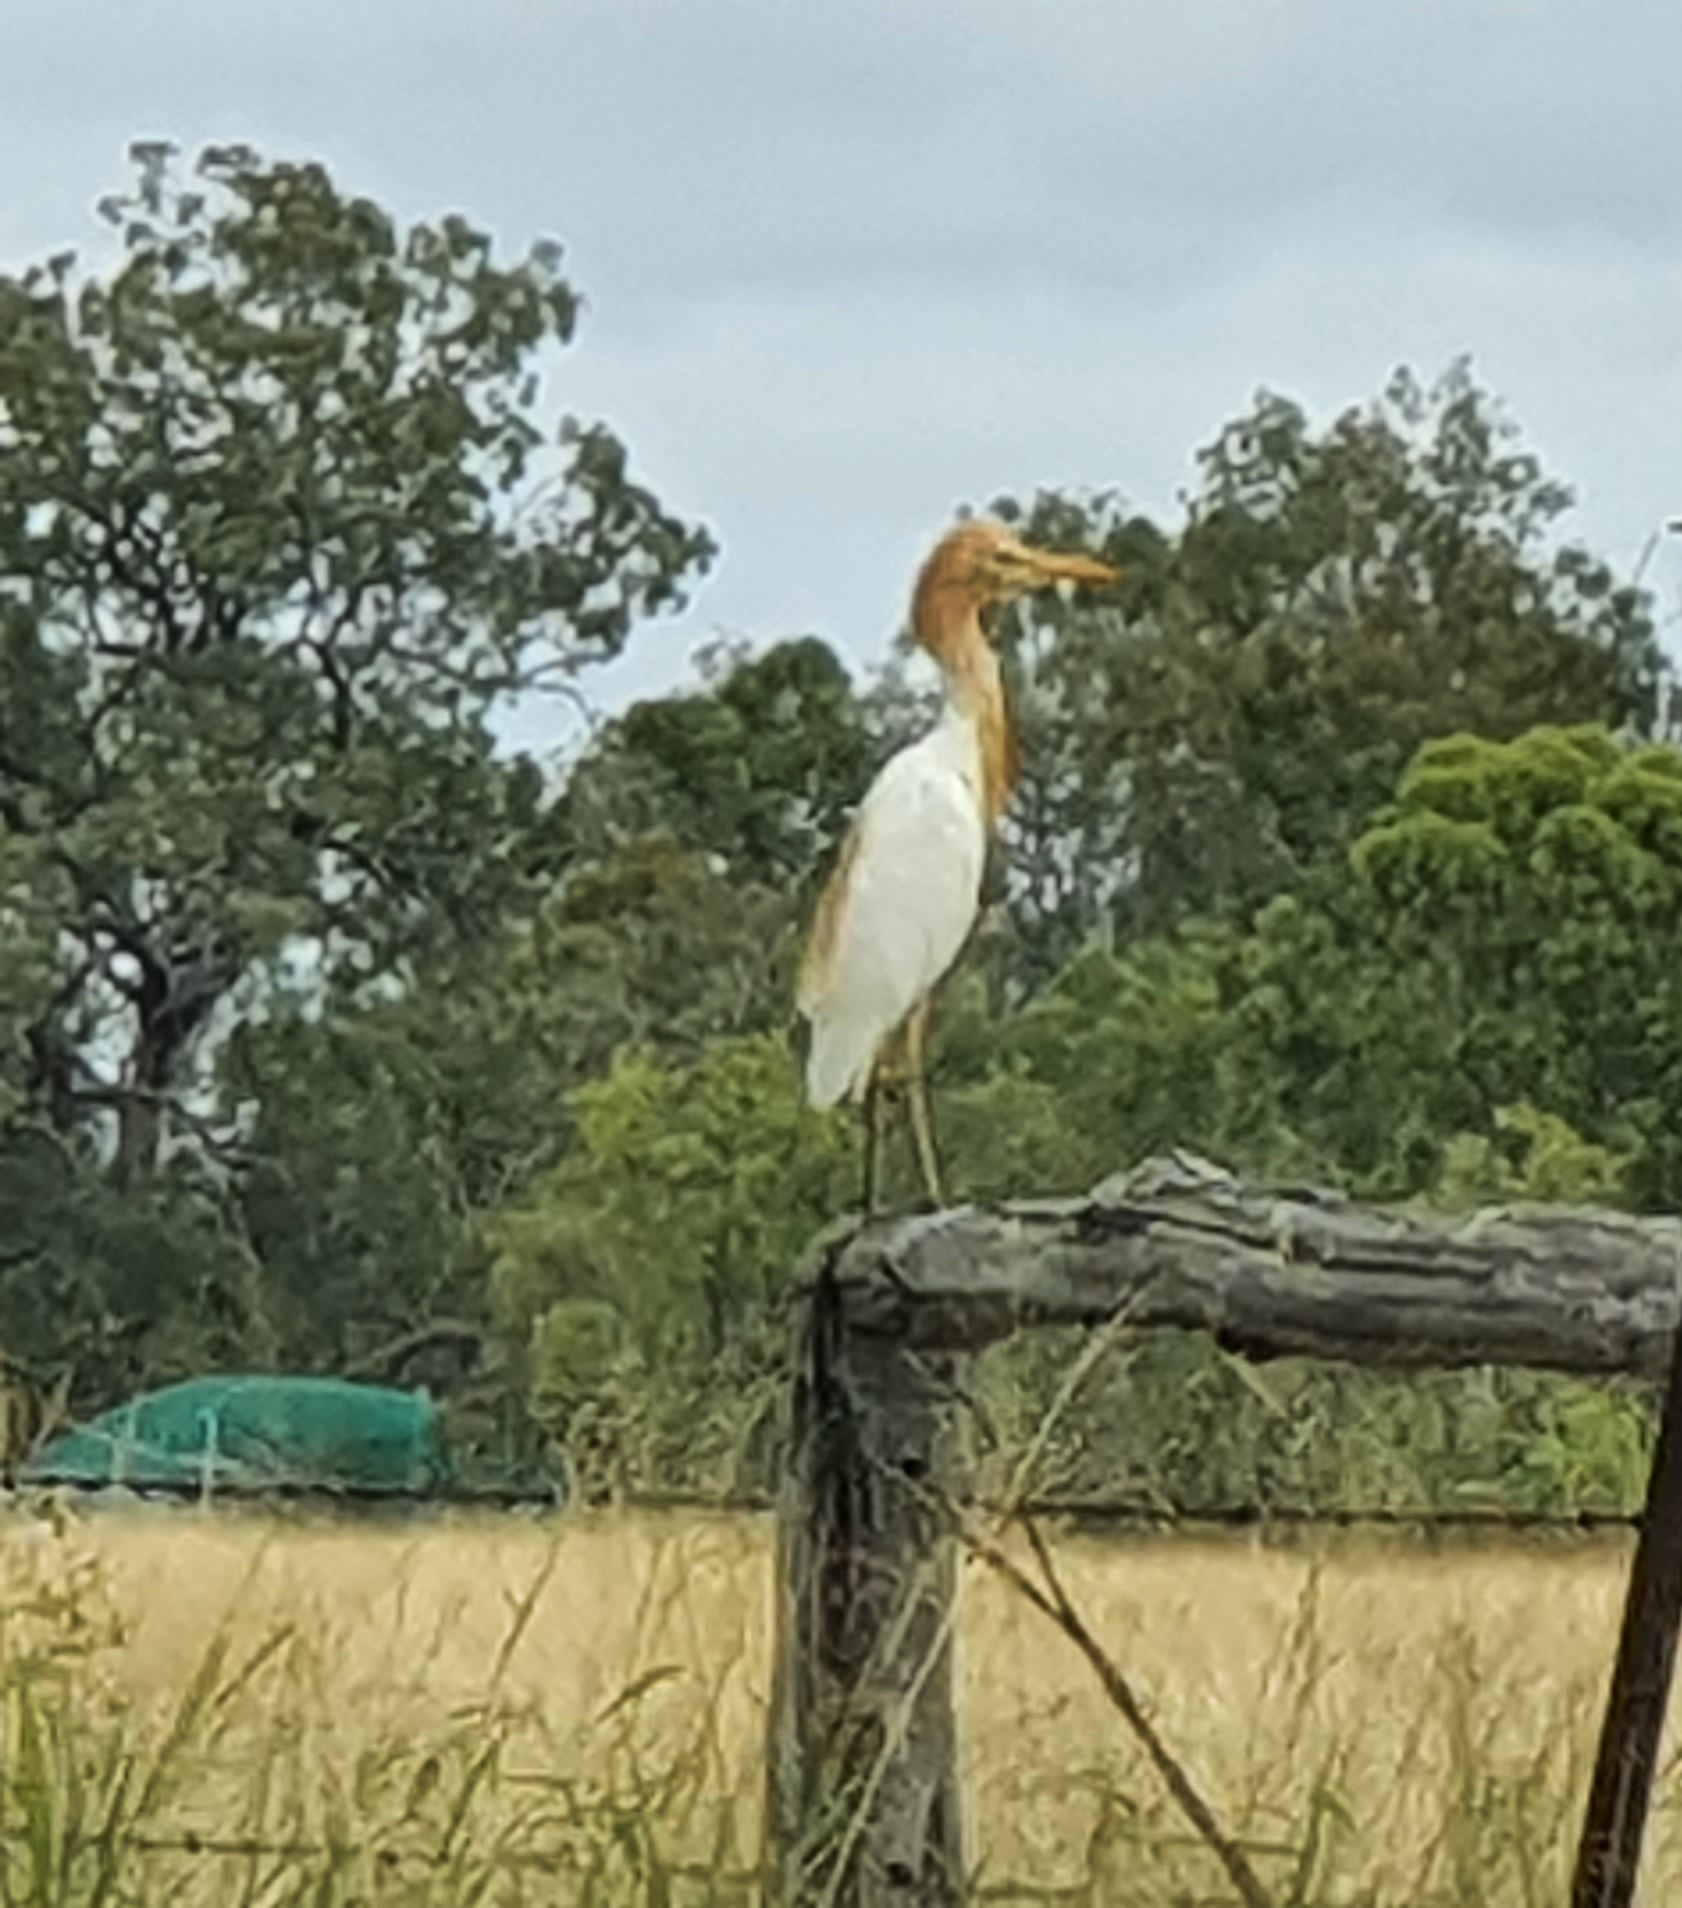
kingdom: Animalia
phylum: Chordata
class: Aves
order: Pelecaniformes
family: Ardeidae
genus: Bubulcus
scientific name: Bubulcus coromandus
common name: Eastern cattle egret
